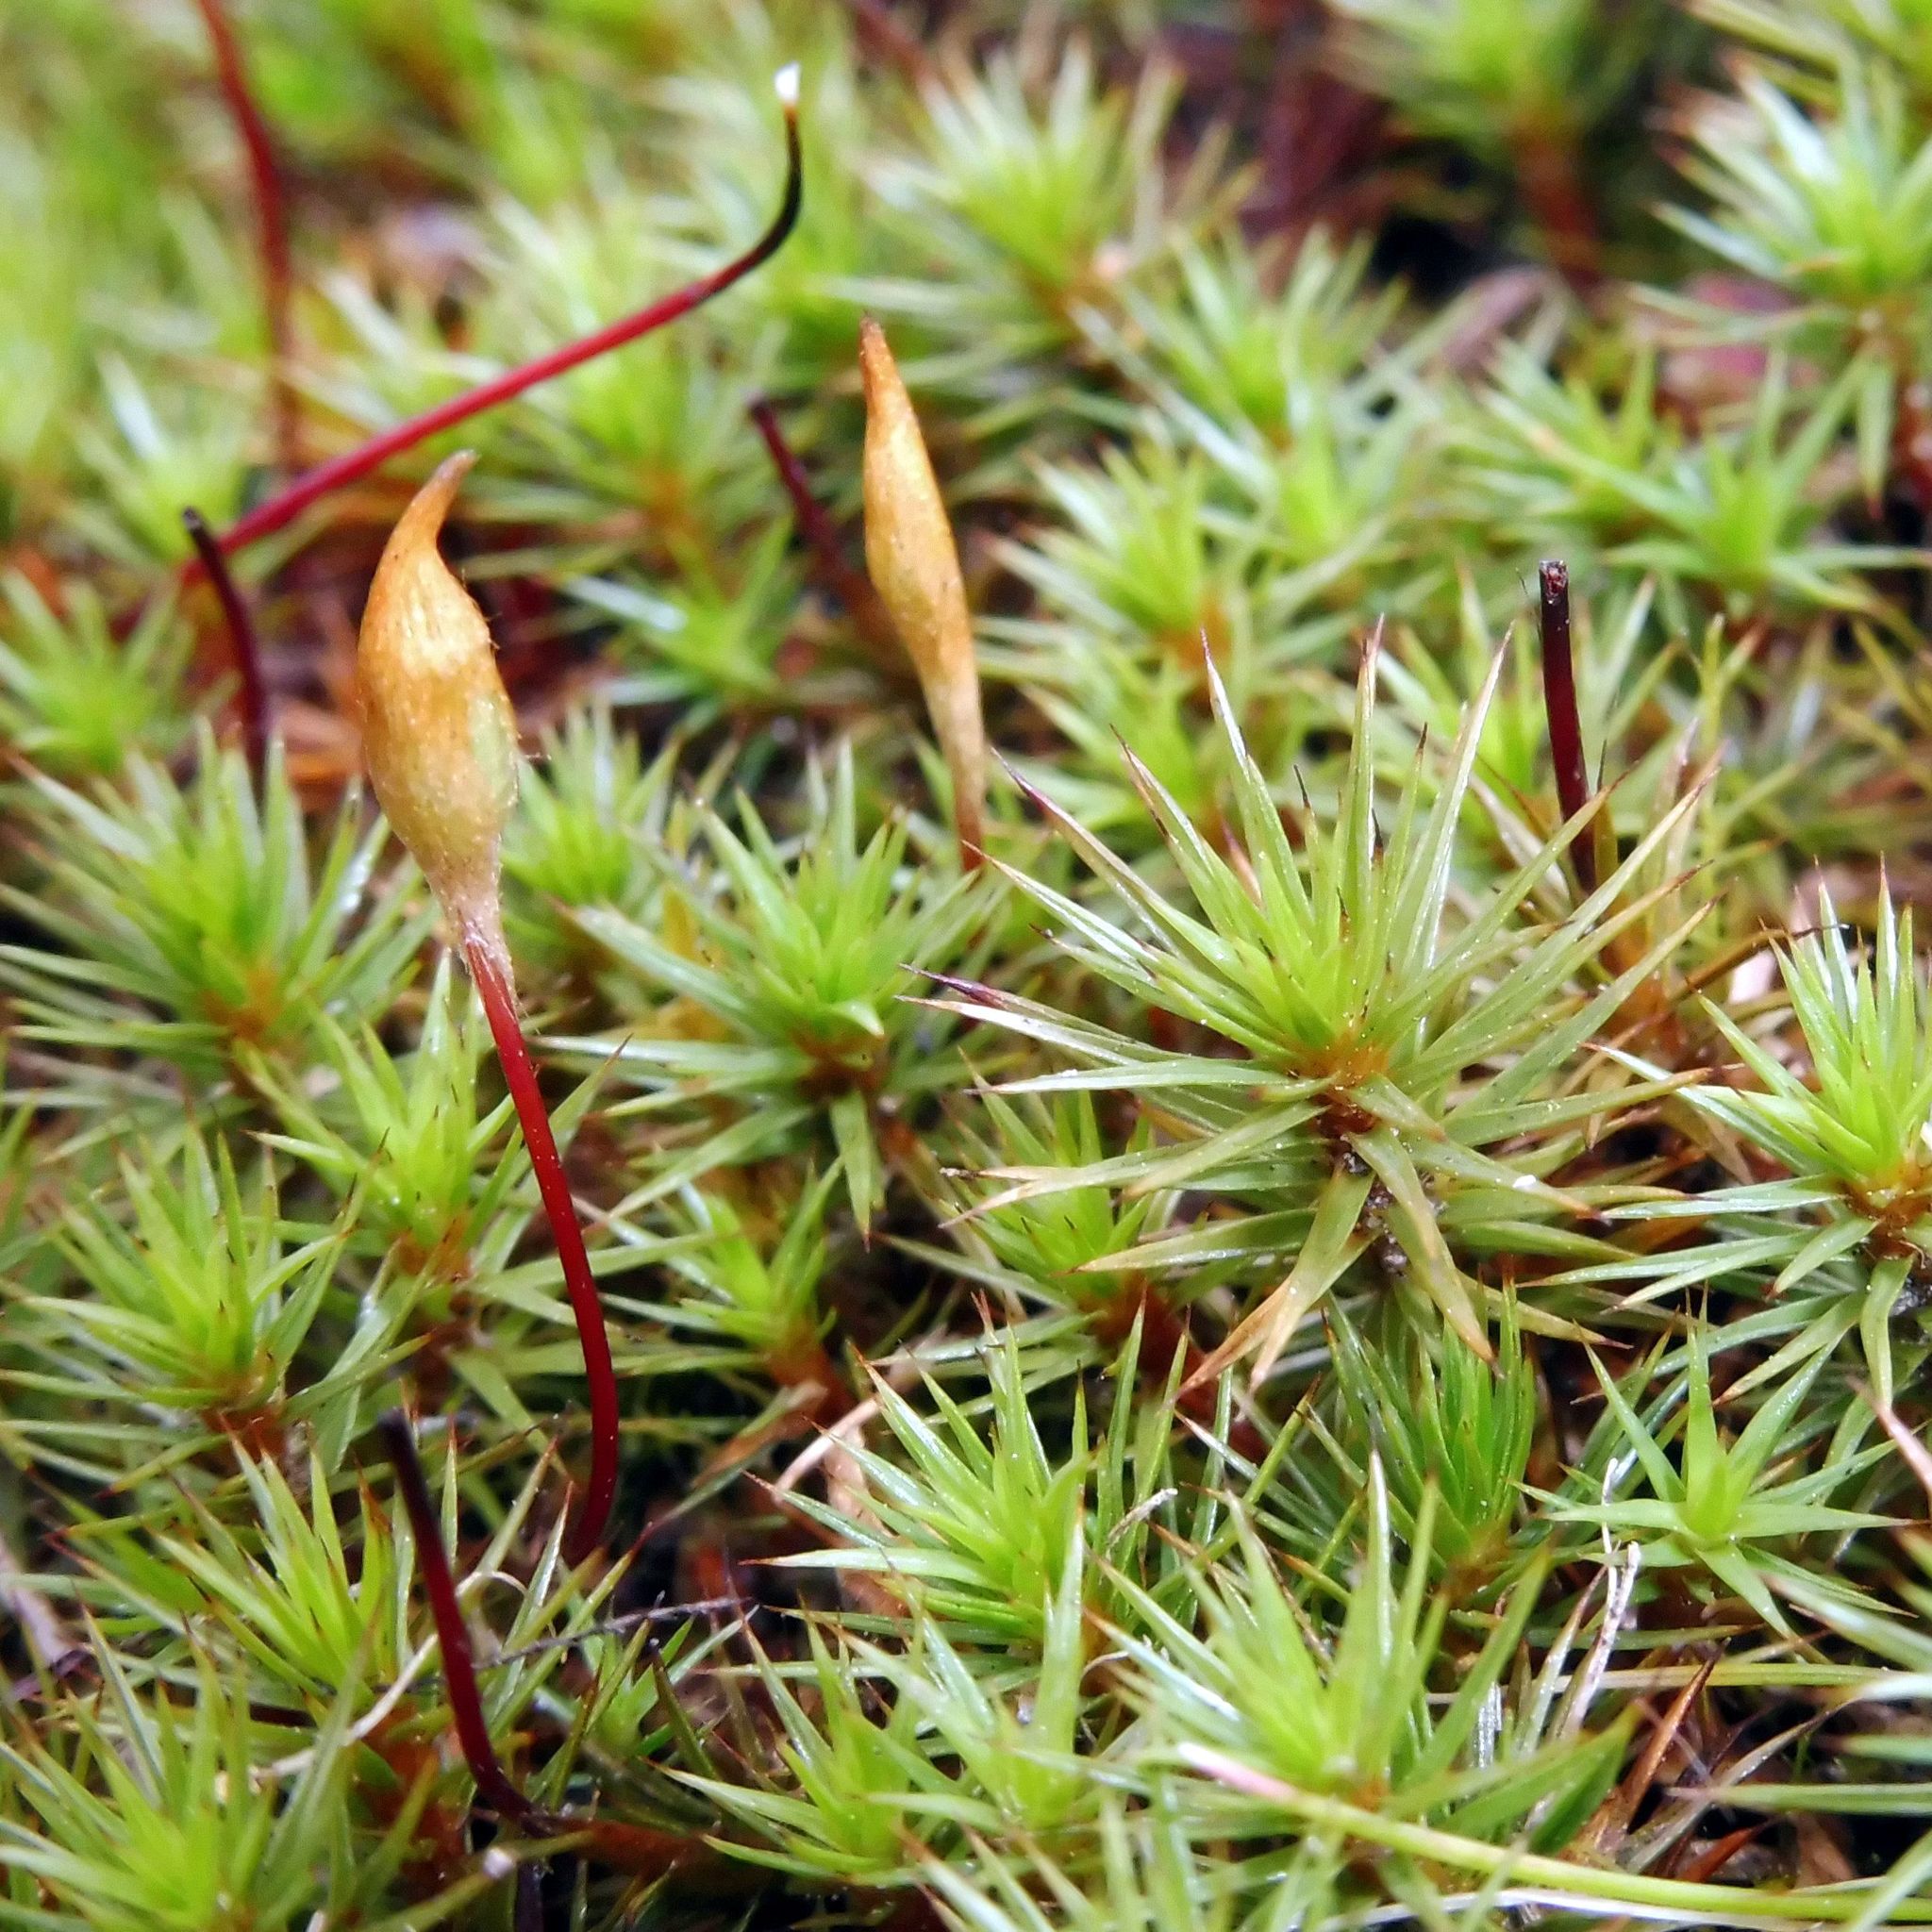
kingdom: Plantae
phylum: Bryophyta
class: Polytrichopsida
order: Polytrichales
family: Polytrichaceae
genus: Polytrichum
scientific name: Polytrichum juniperinum
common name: Juniper haircap moss
